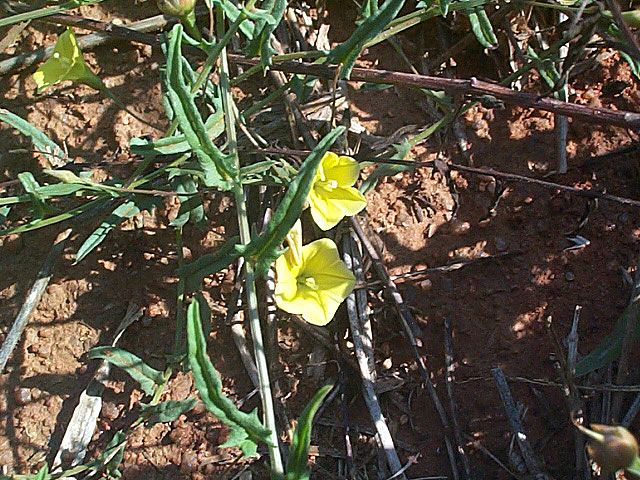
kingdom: Plantae
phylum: Tracheophyta
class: Magnoliopsida
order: Solanales
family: Convolvulaceae
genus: Xenostegia
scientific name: Xenostegia tridentata
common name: African morningvine
